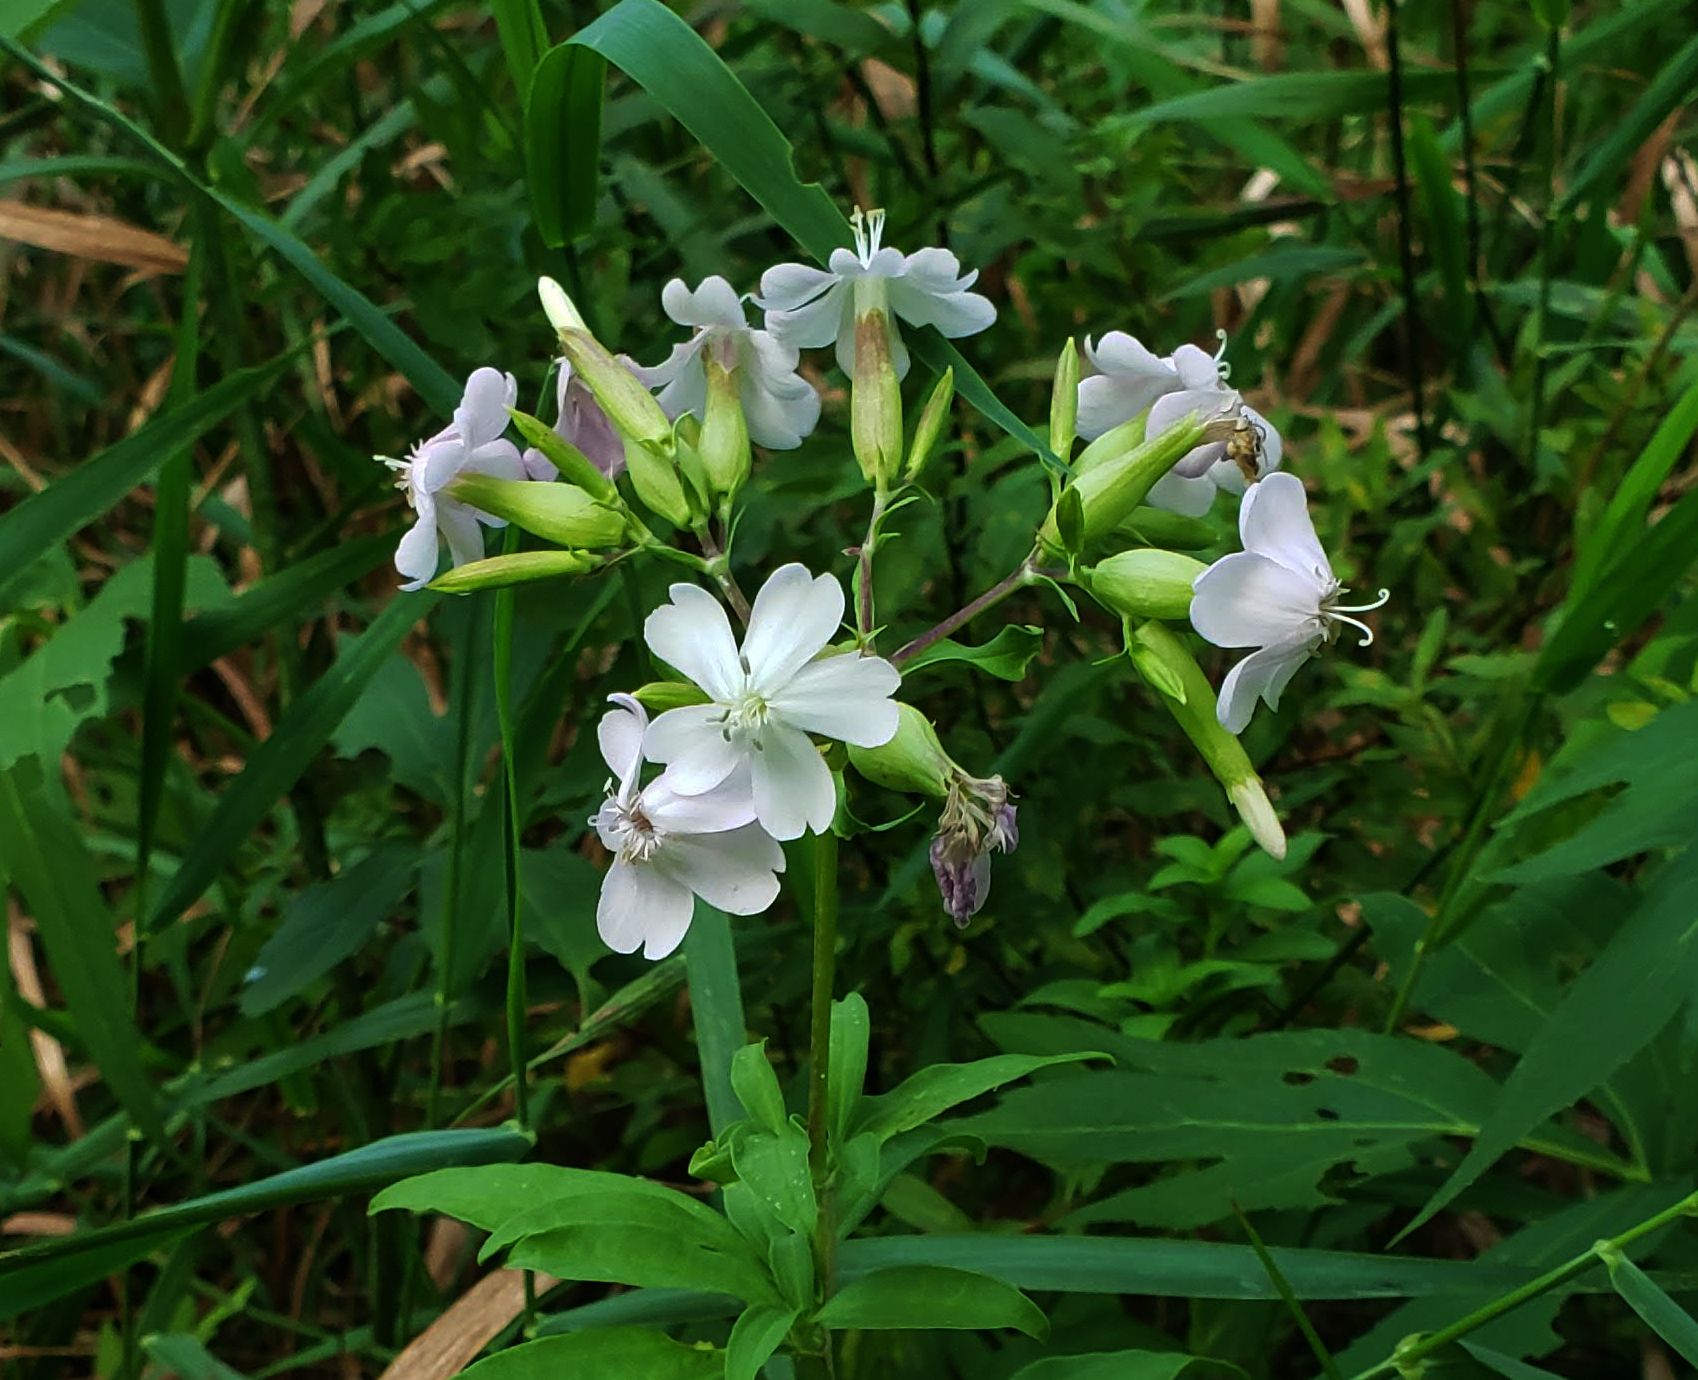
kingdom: Plantae
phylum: Tracheophyta
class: Magnoliopsida
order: Caryophyllales
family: Caryophyllaceae
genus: Saponaria
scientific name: Saponaria officinalis
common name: Soapwort
